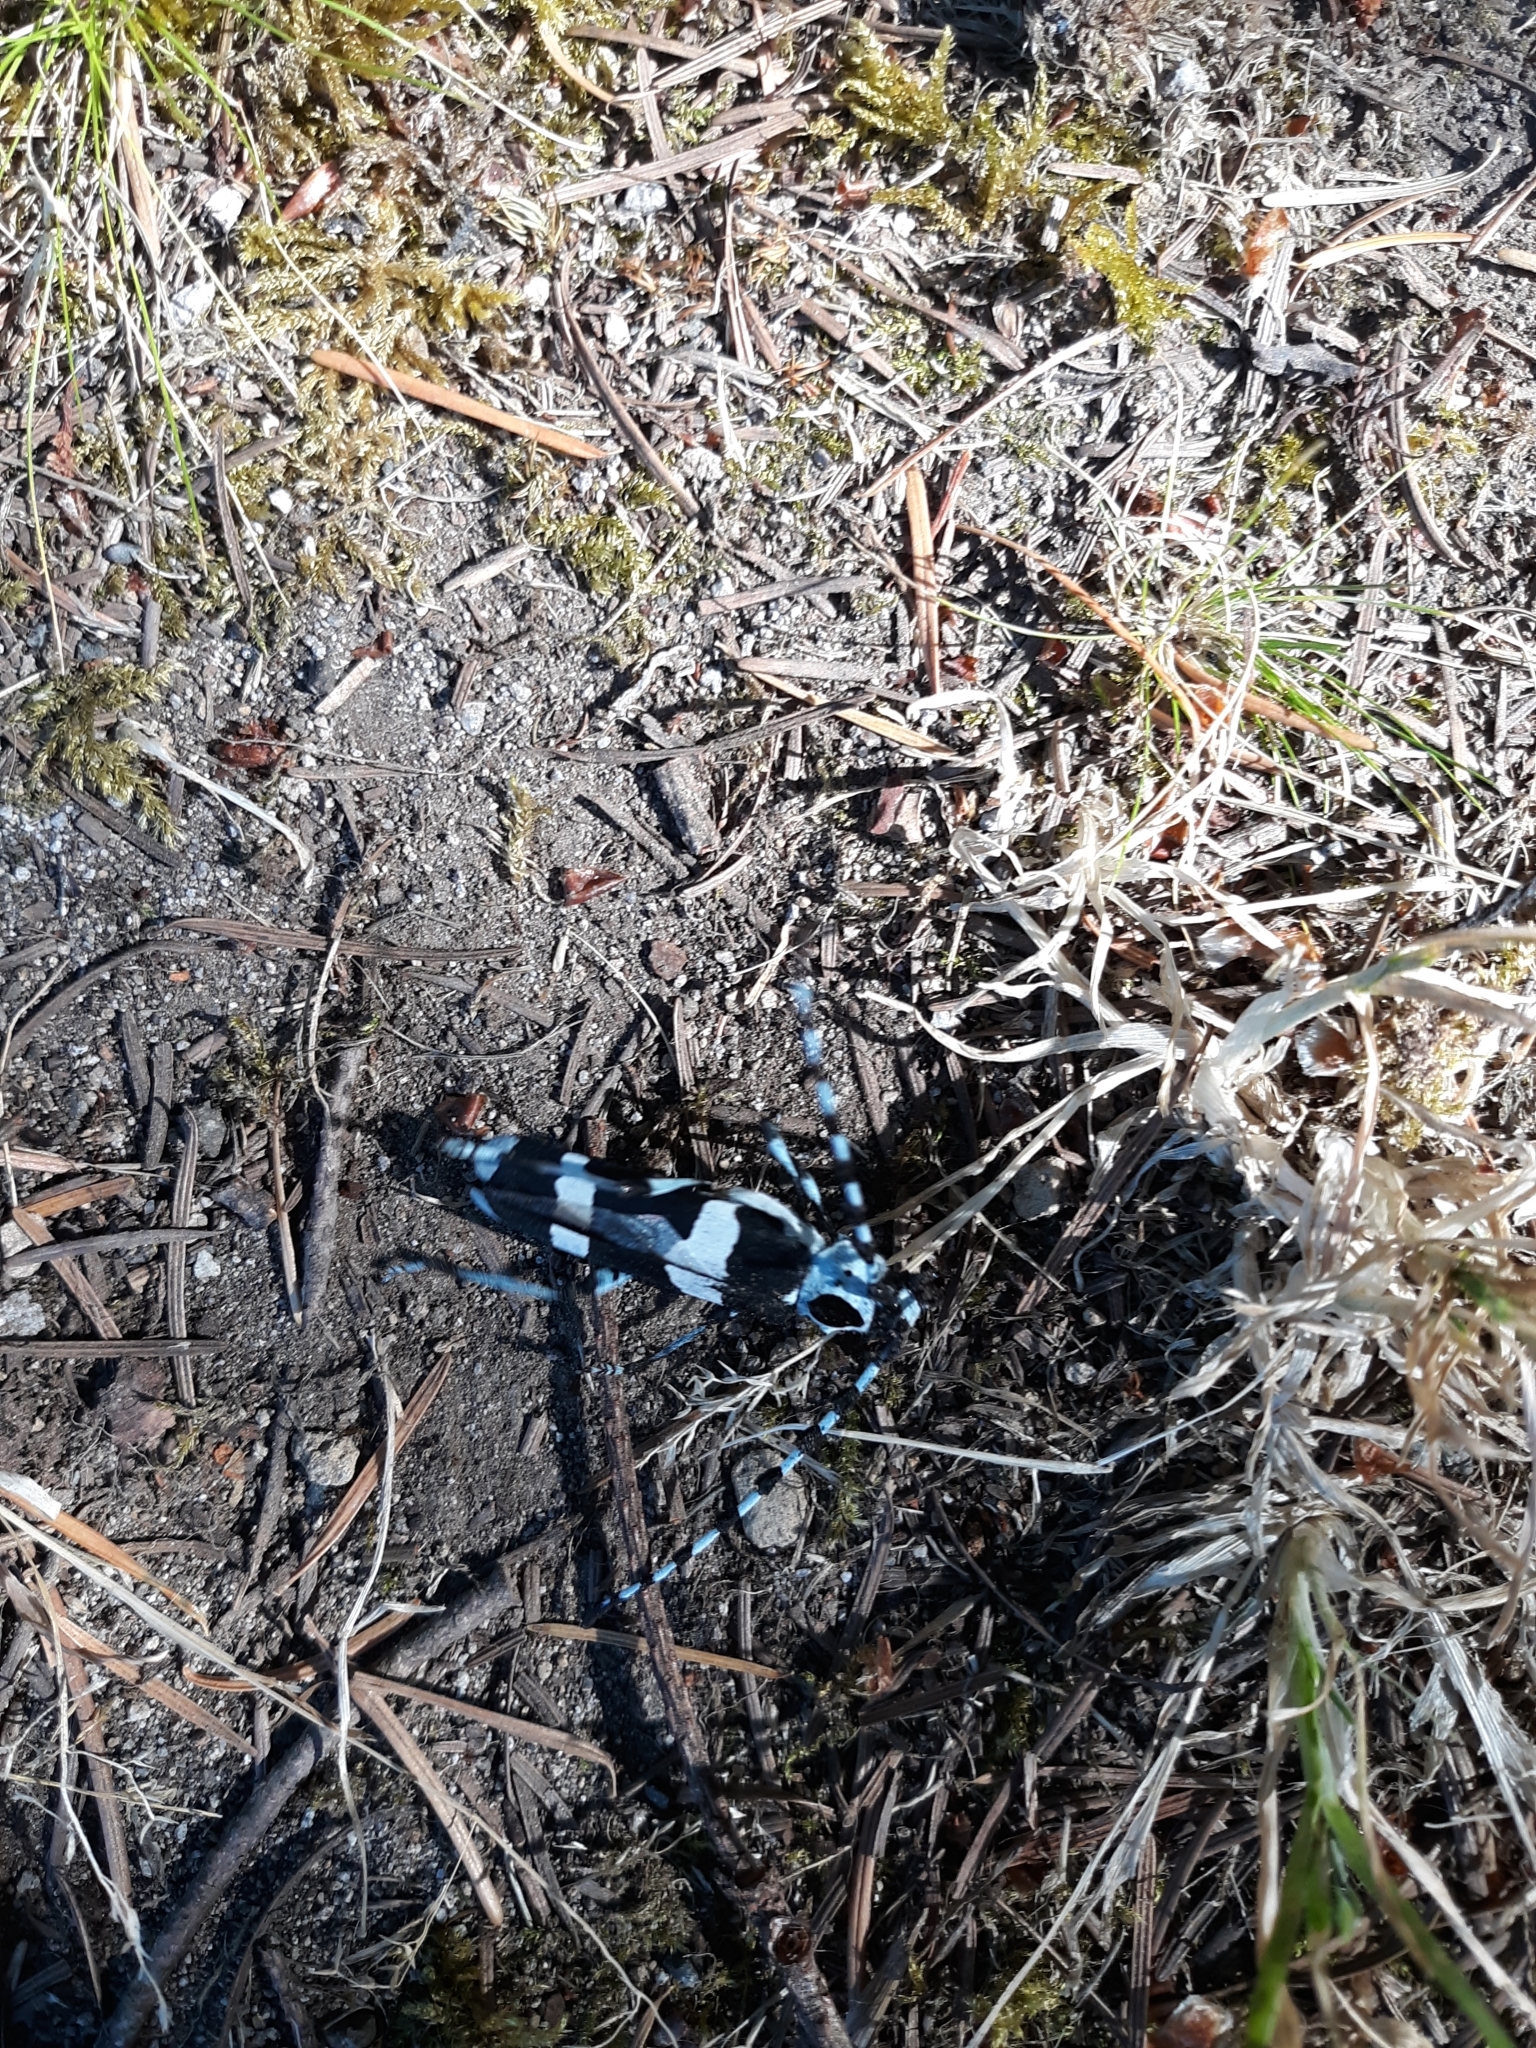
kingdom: Animalia
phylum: Arthropoda
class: Insecta
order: Coleoptera
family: Cerambycidae
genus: Rosalia
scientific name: Rosalia funebris
